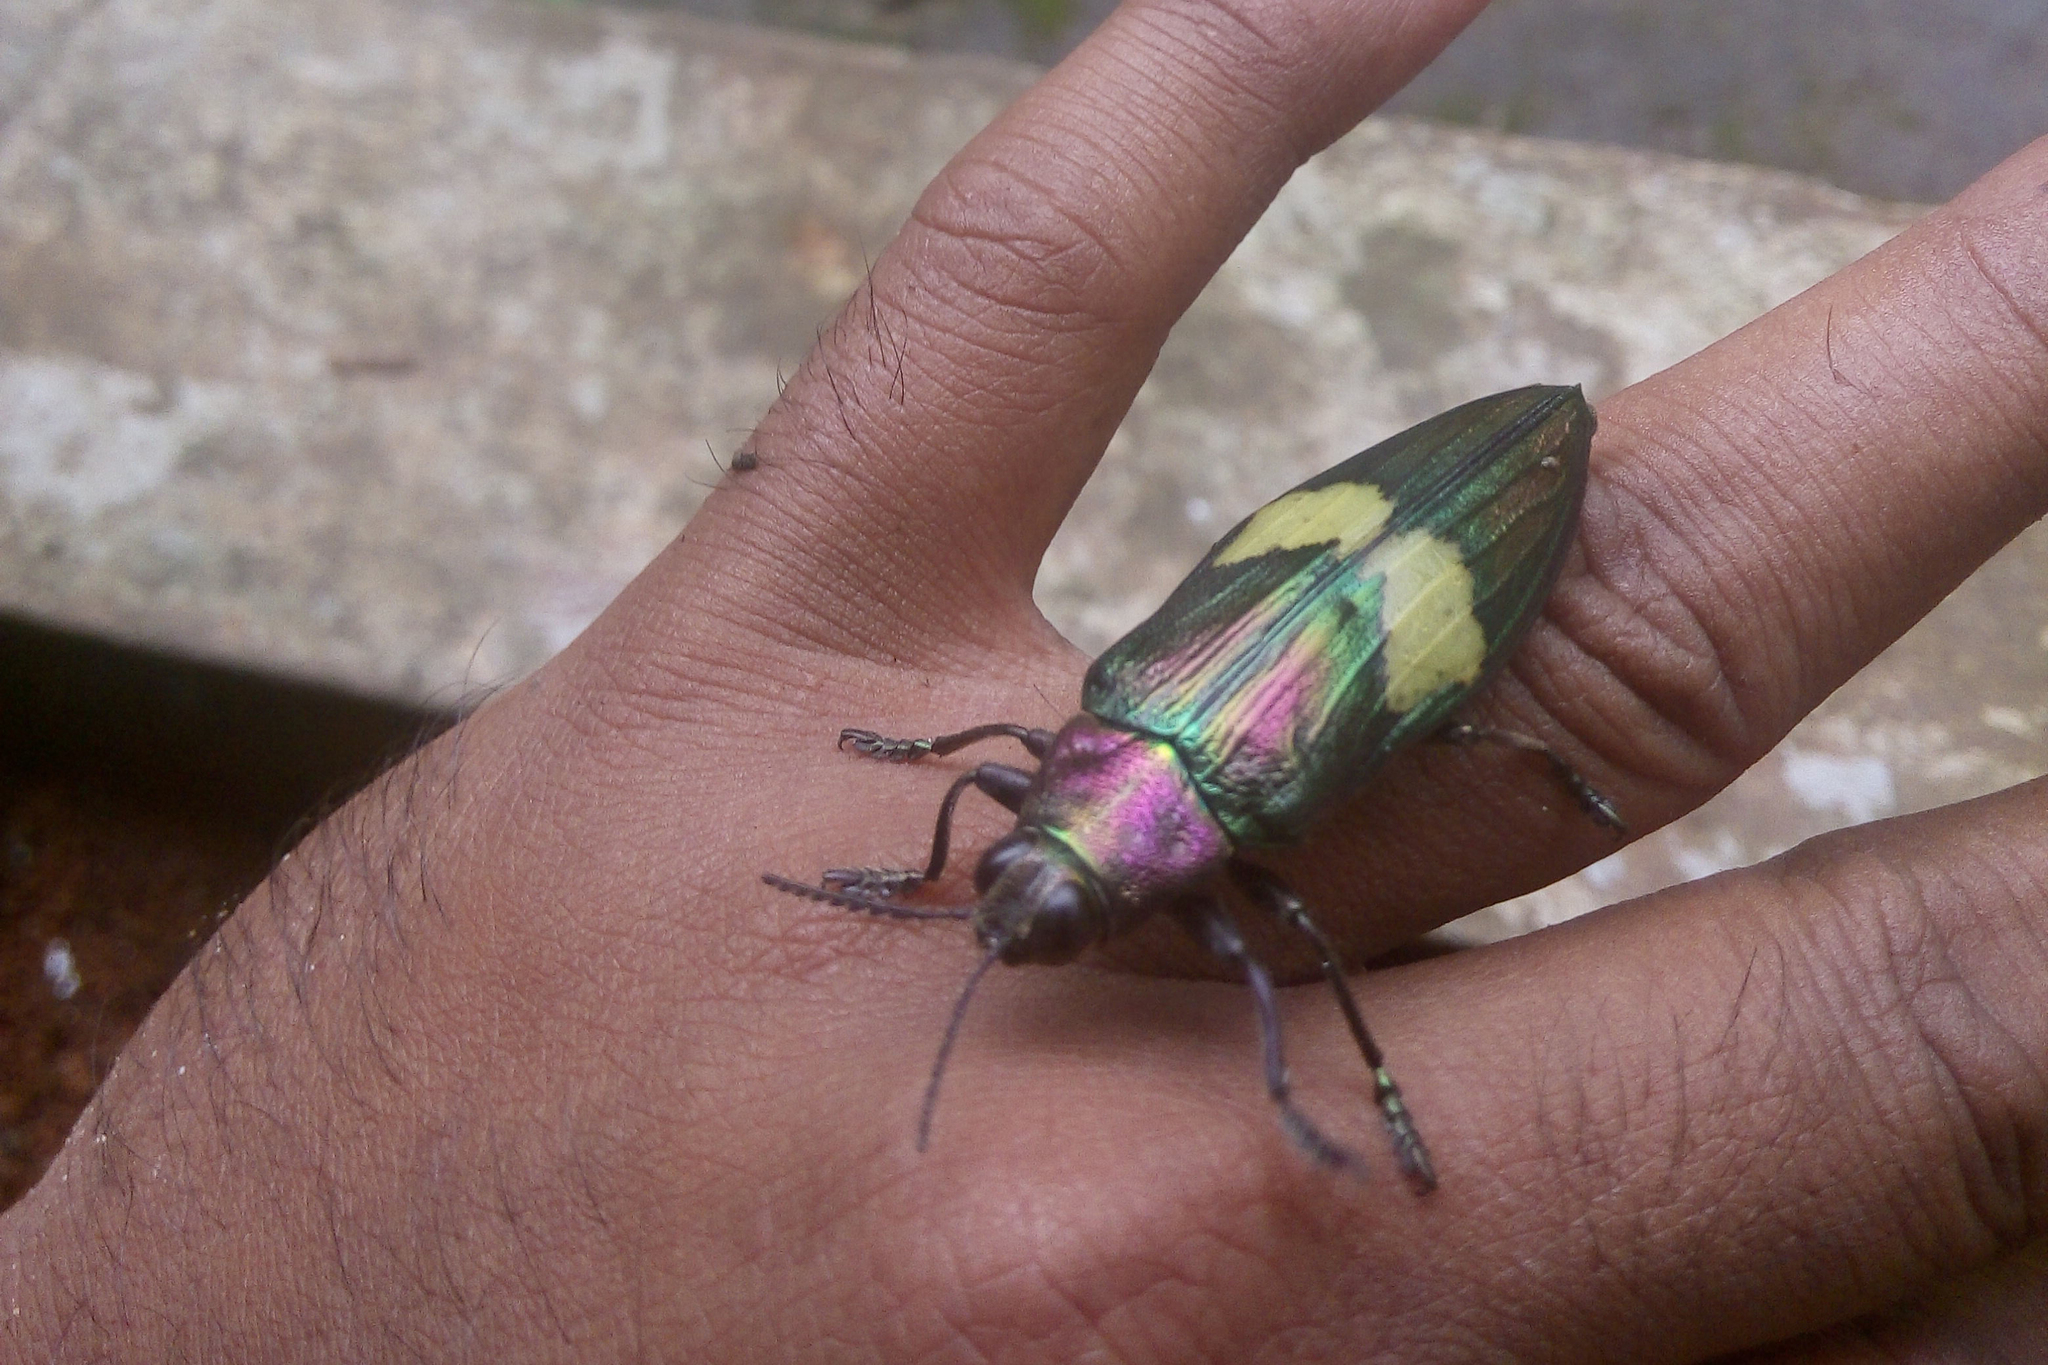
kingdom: Animalia
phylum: Arthropoda
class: Insecta
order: Coleoptera
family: Buprestidae
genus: Chrysochroa
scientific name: Chrysochroa cuprascens
